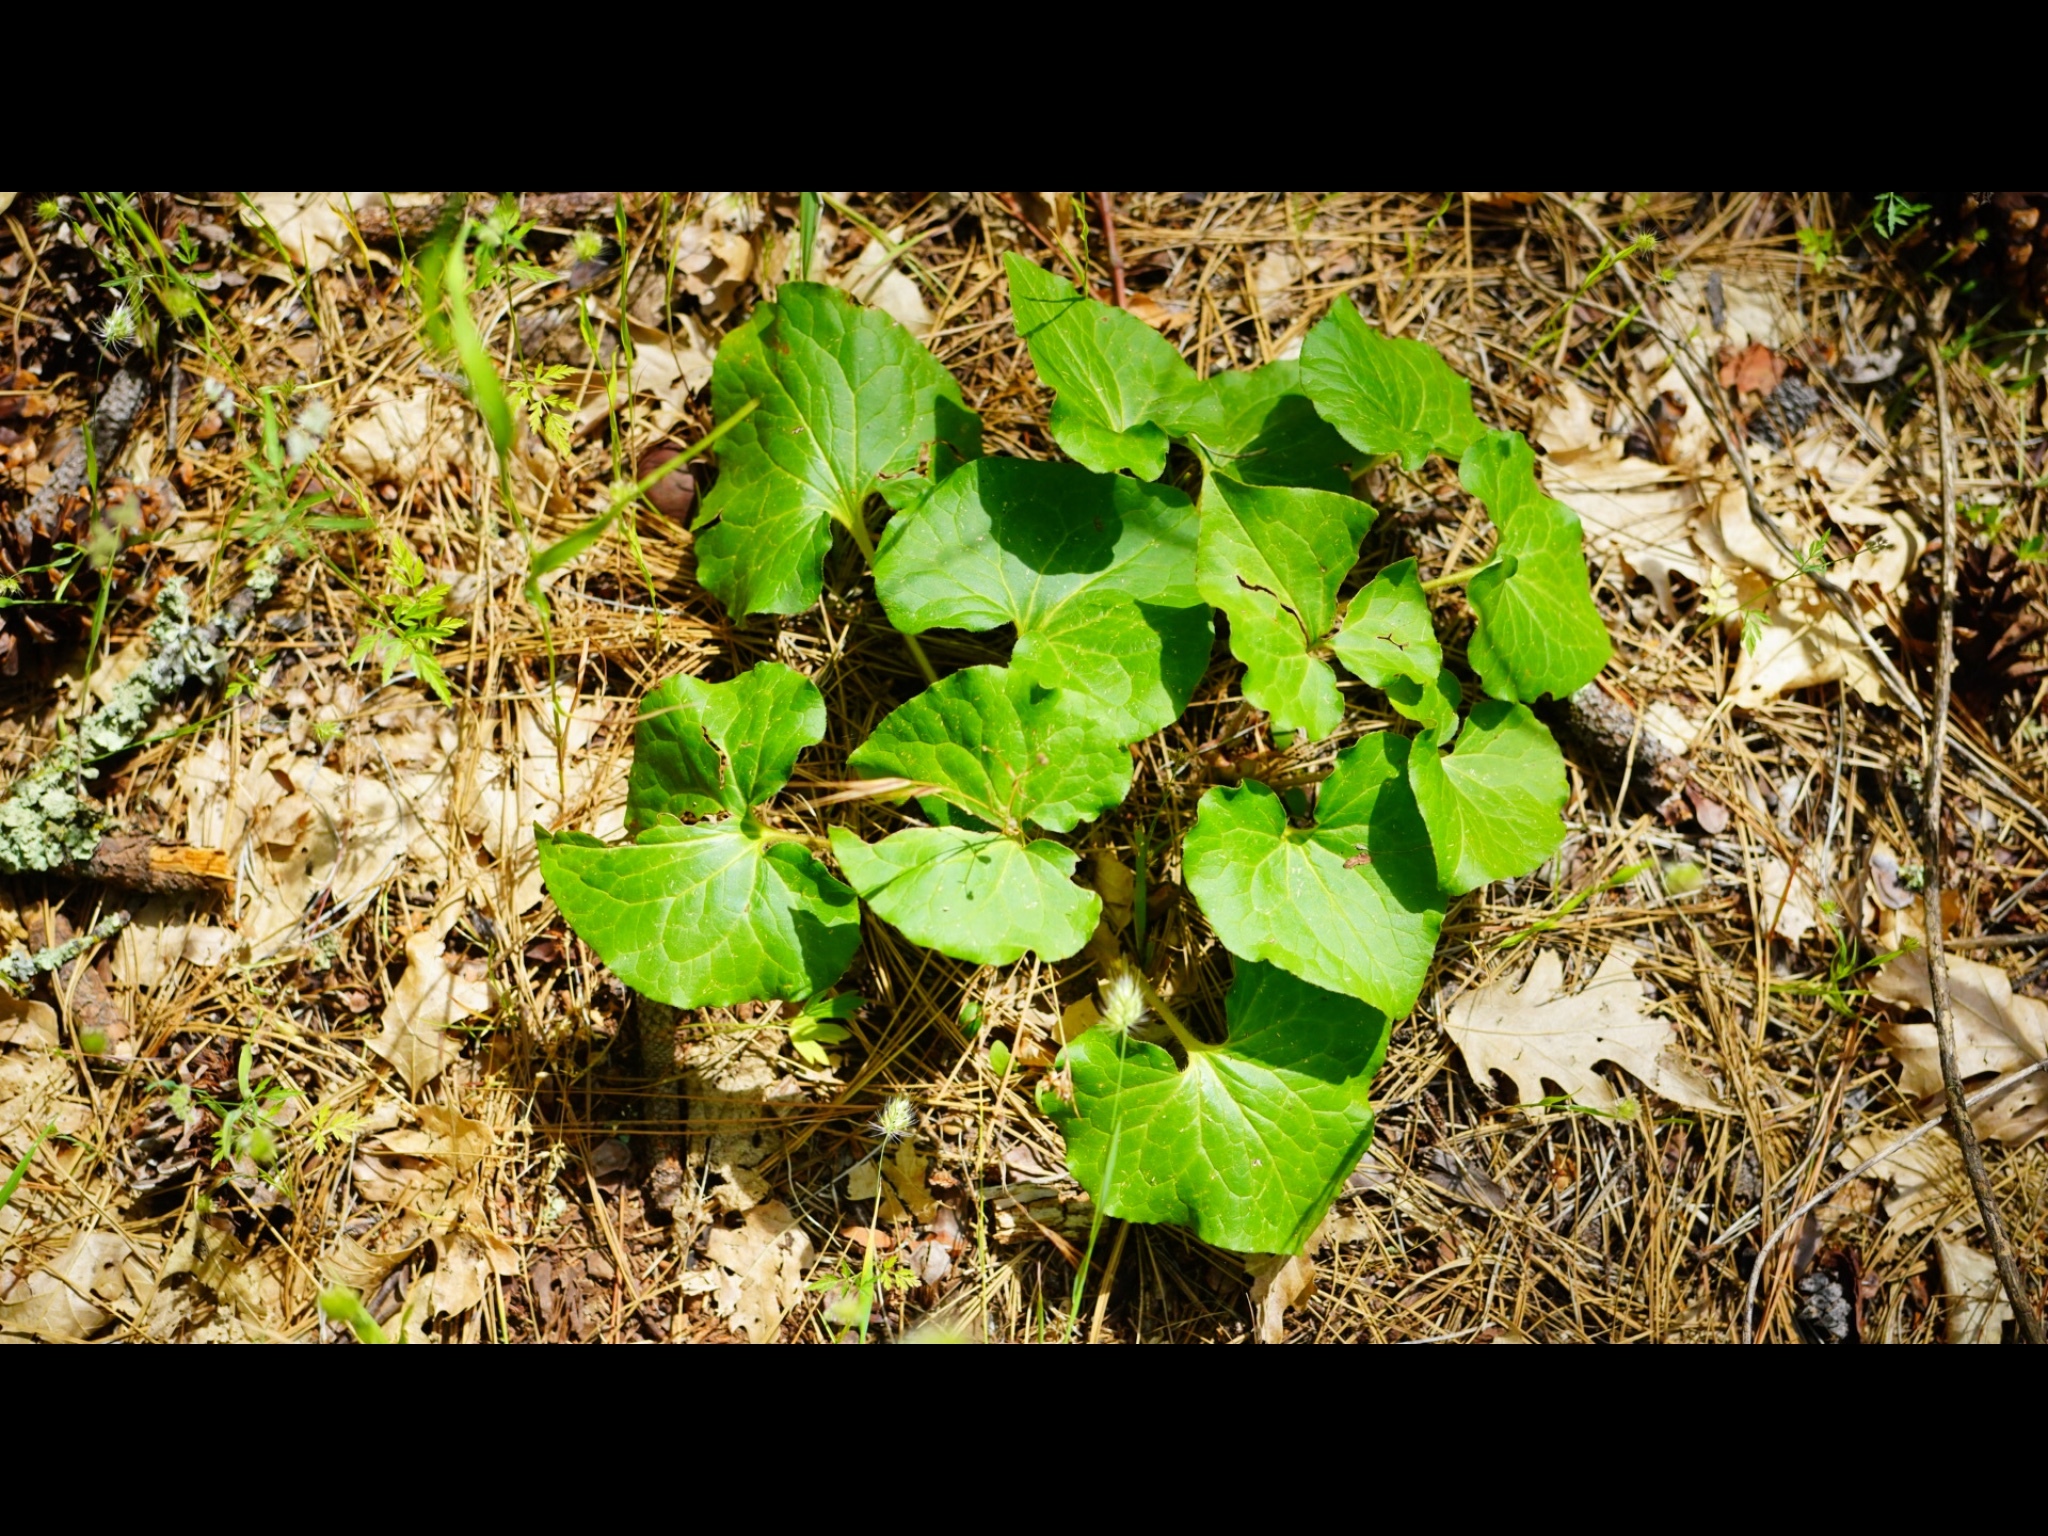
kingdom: Plantae
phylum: Tracheophyta
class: Magnoliopsida
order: Piperales
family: Aristolochiaceae
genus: Asarum
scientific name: Asarum hartwegii
